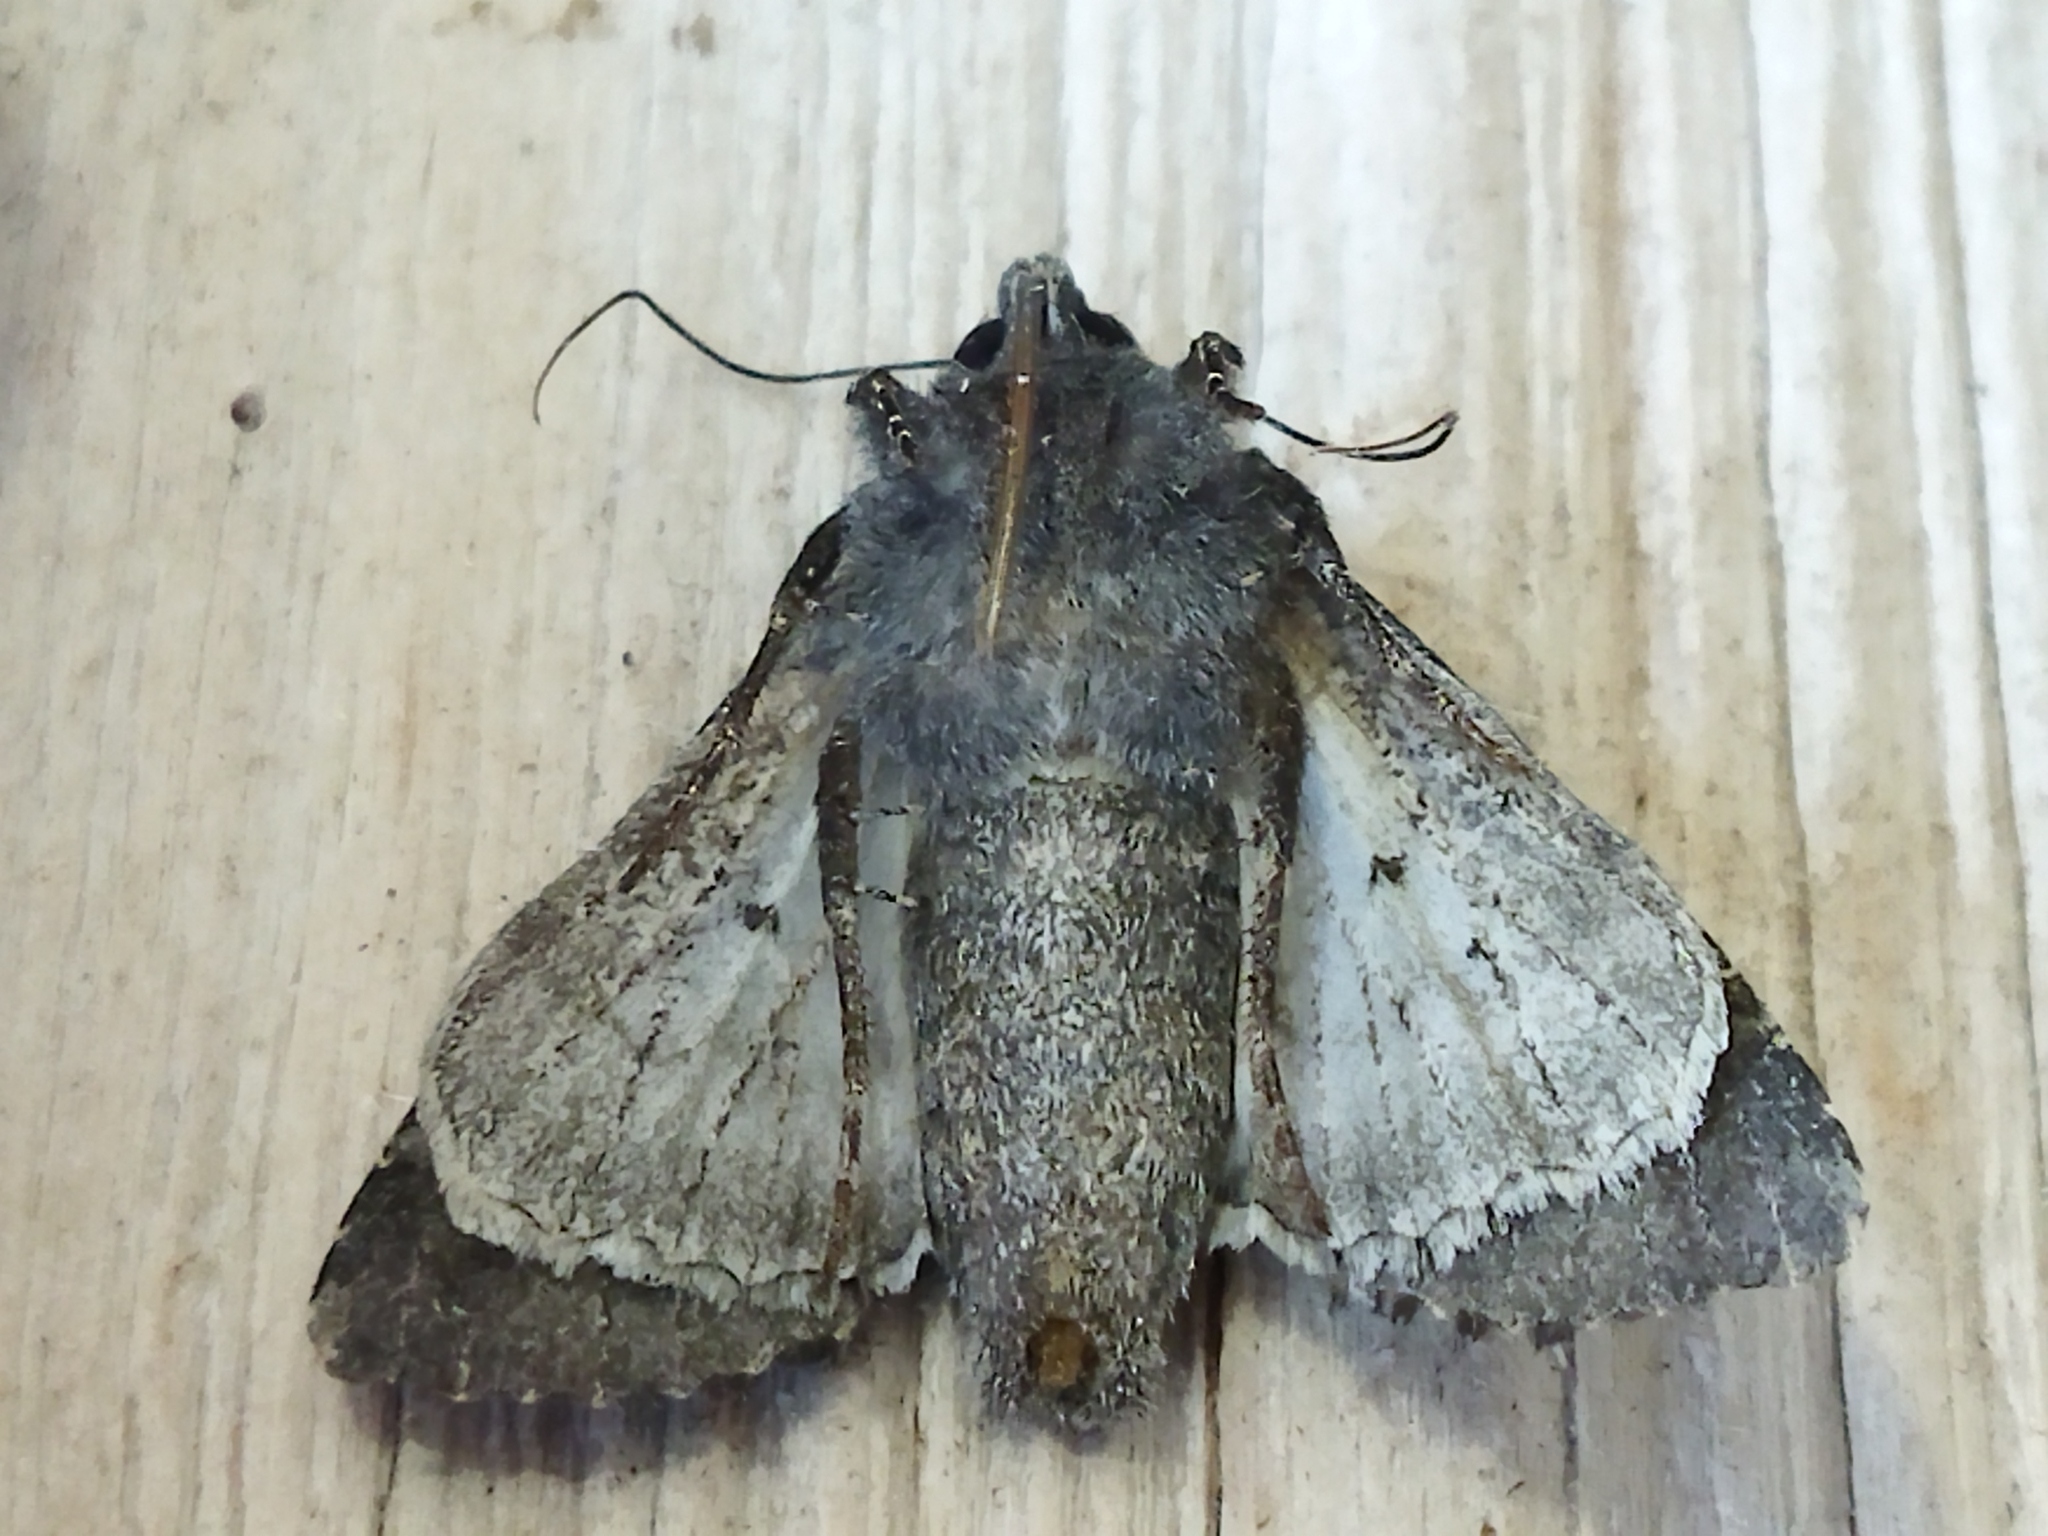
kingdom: Animalia
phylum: Arthropoda
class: Insecta
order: Lepidoptera
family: Noctuidae
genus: Aporophyla
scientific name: Aporophyla nigra
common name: Black rustic
